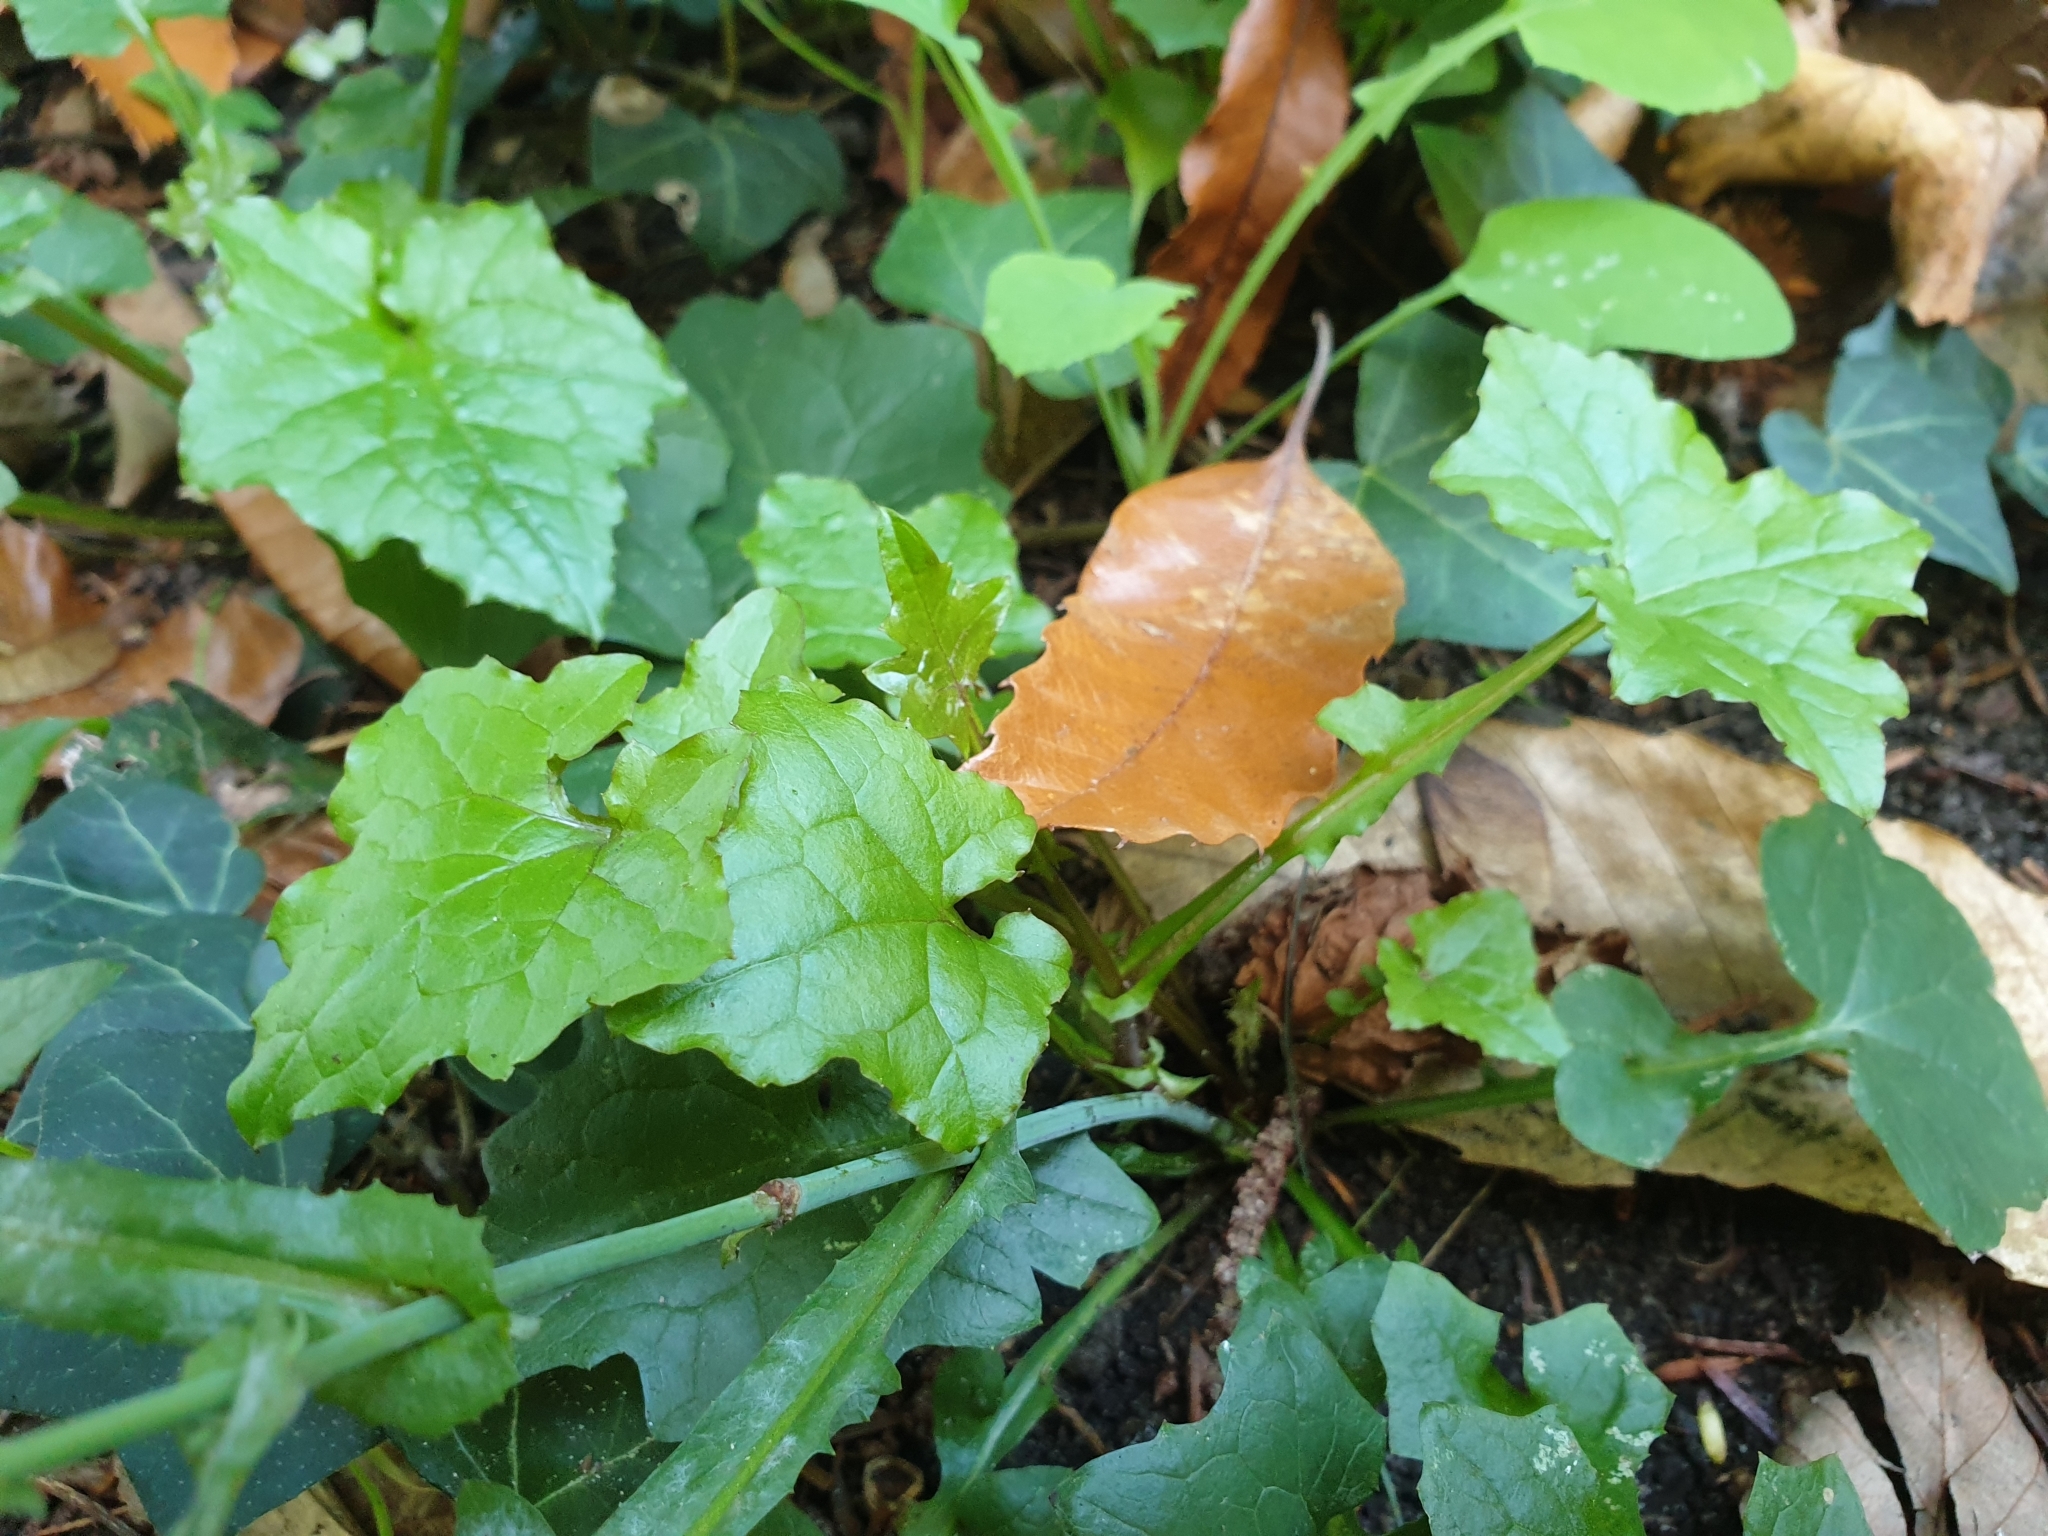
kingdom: Plantae
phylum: Tracheophyta
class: Magnoliopsida
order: Asterales
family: Asteraceae
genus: Mycelis
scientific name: Mycelis muralis
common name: Wall lettuce
